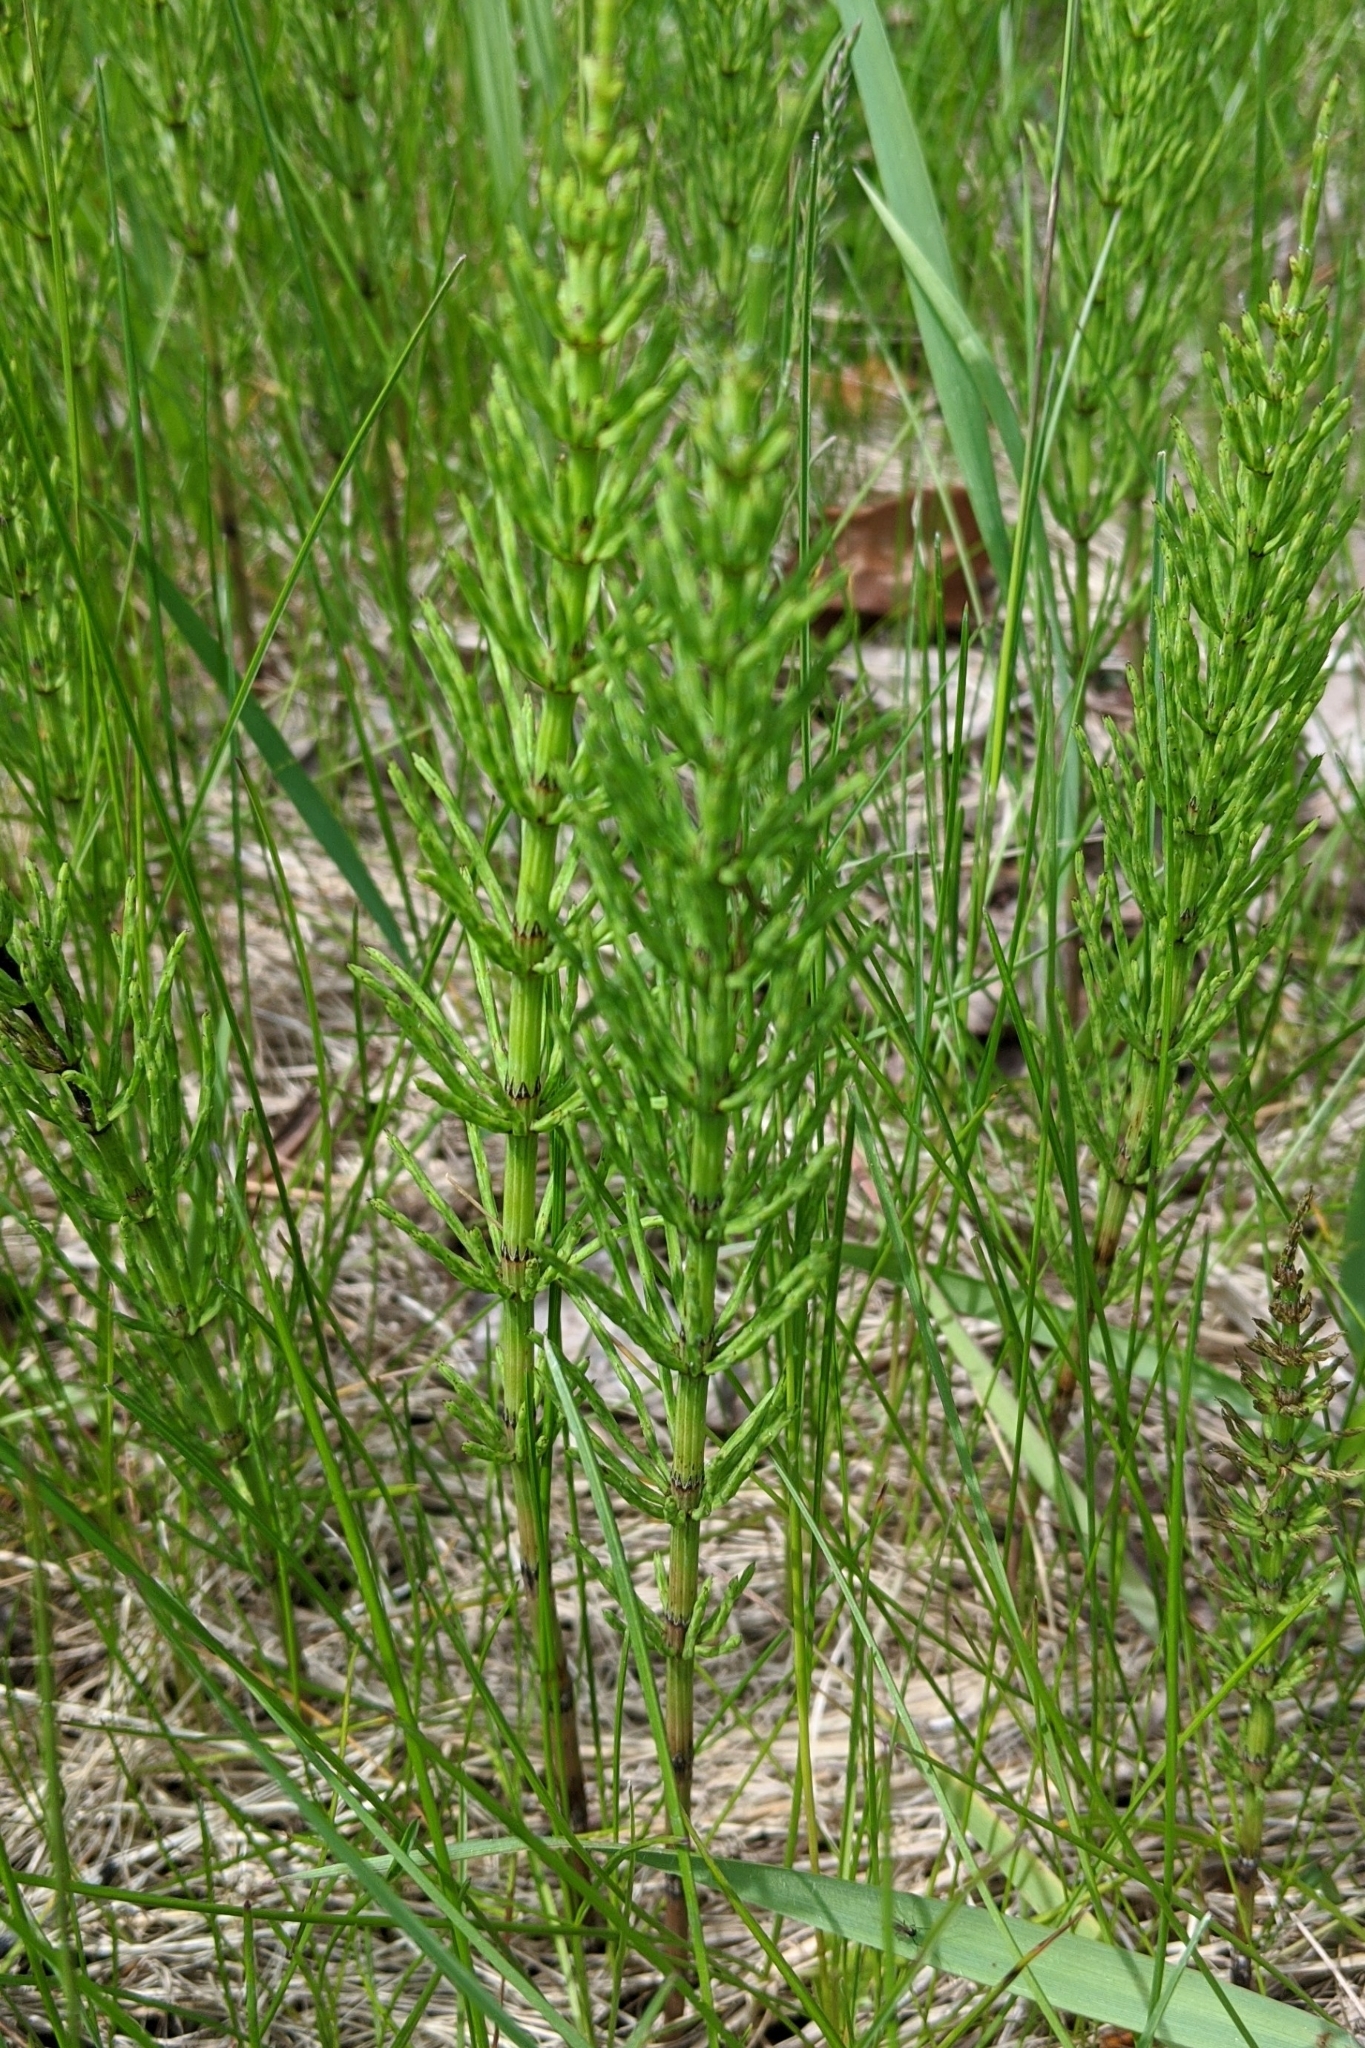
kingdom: Plantae
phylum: Tracheophyta
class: Polypodiopsida
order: Equisetales
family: Equisetaceae
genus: Equisetum
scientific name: Equisetum arvense
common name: Field horsetail
